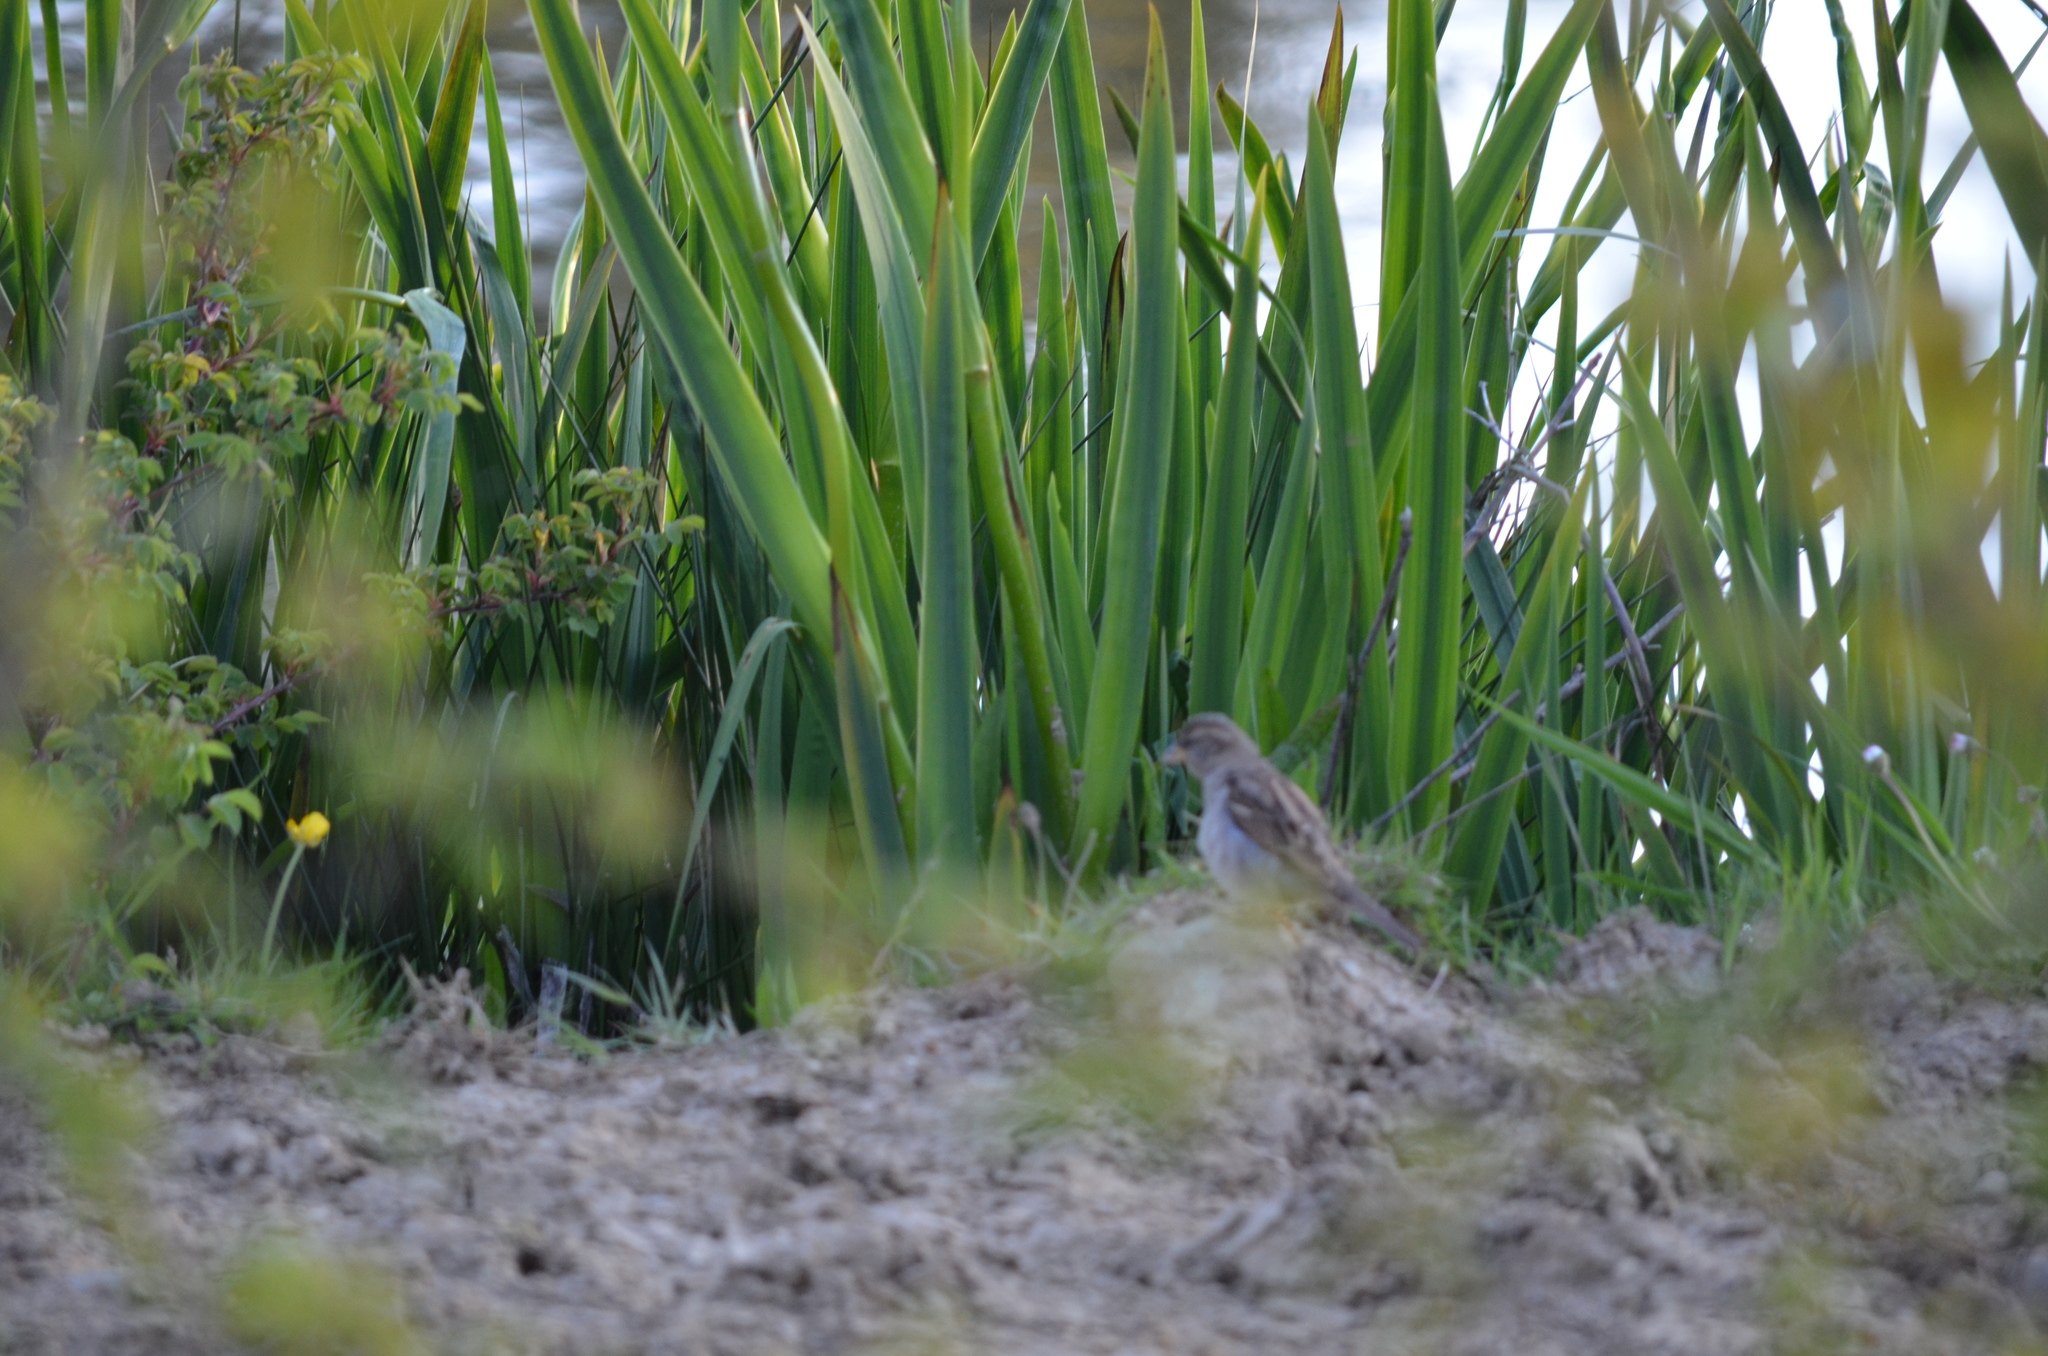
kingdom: Animalia
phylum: Chordata
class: Aves
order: Passeriformes
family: Passeridae
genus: Passer
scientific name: Passer domesticus
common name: House sparrow
